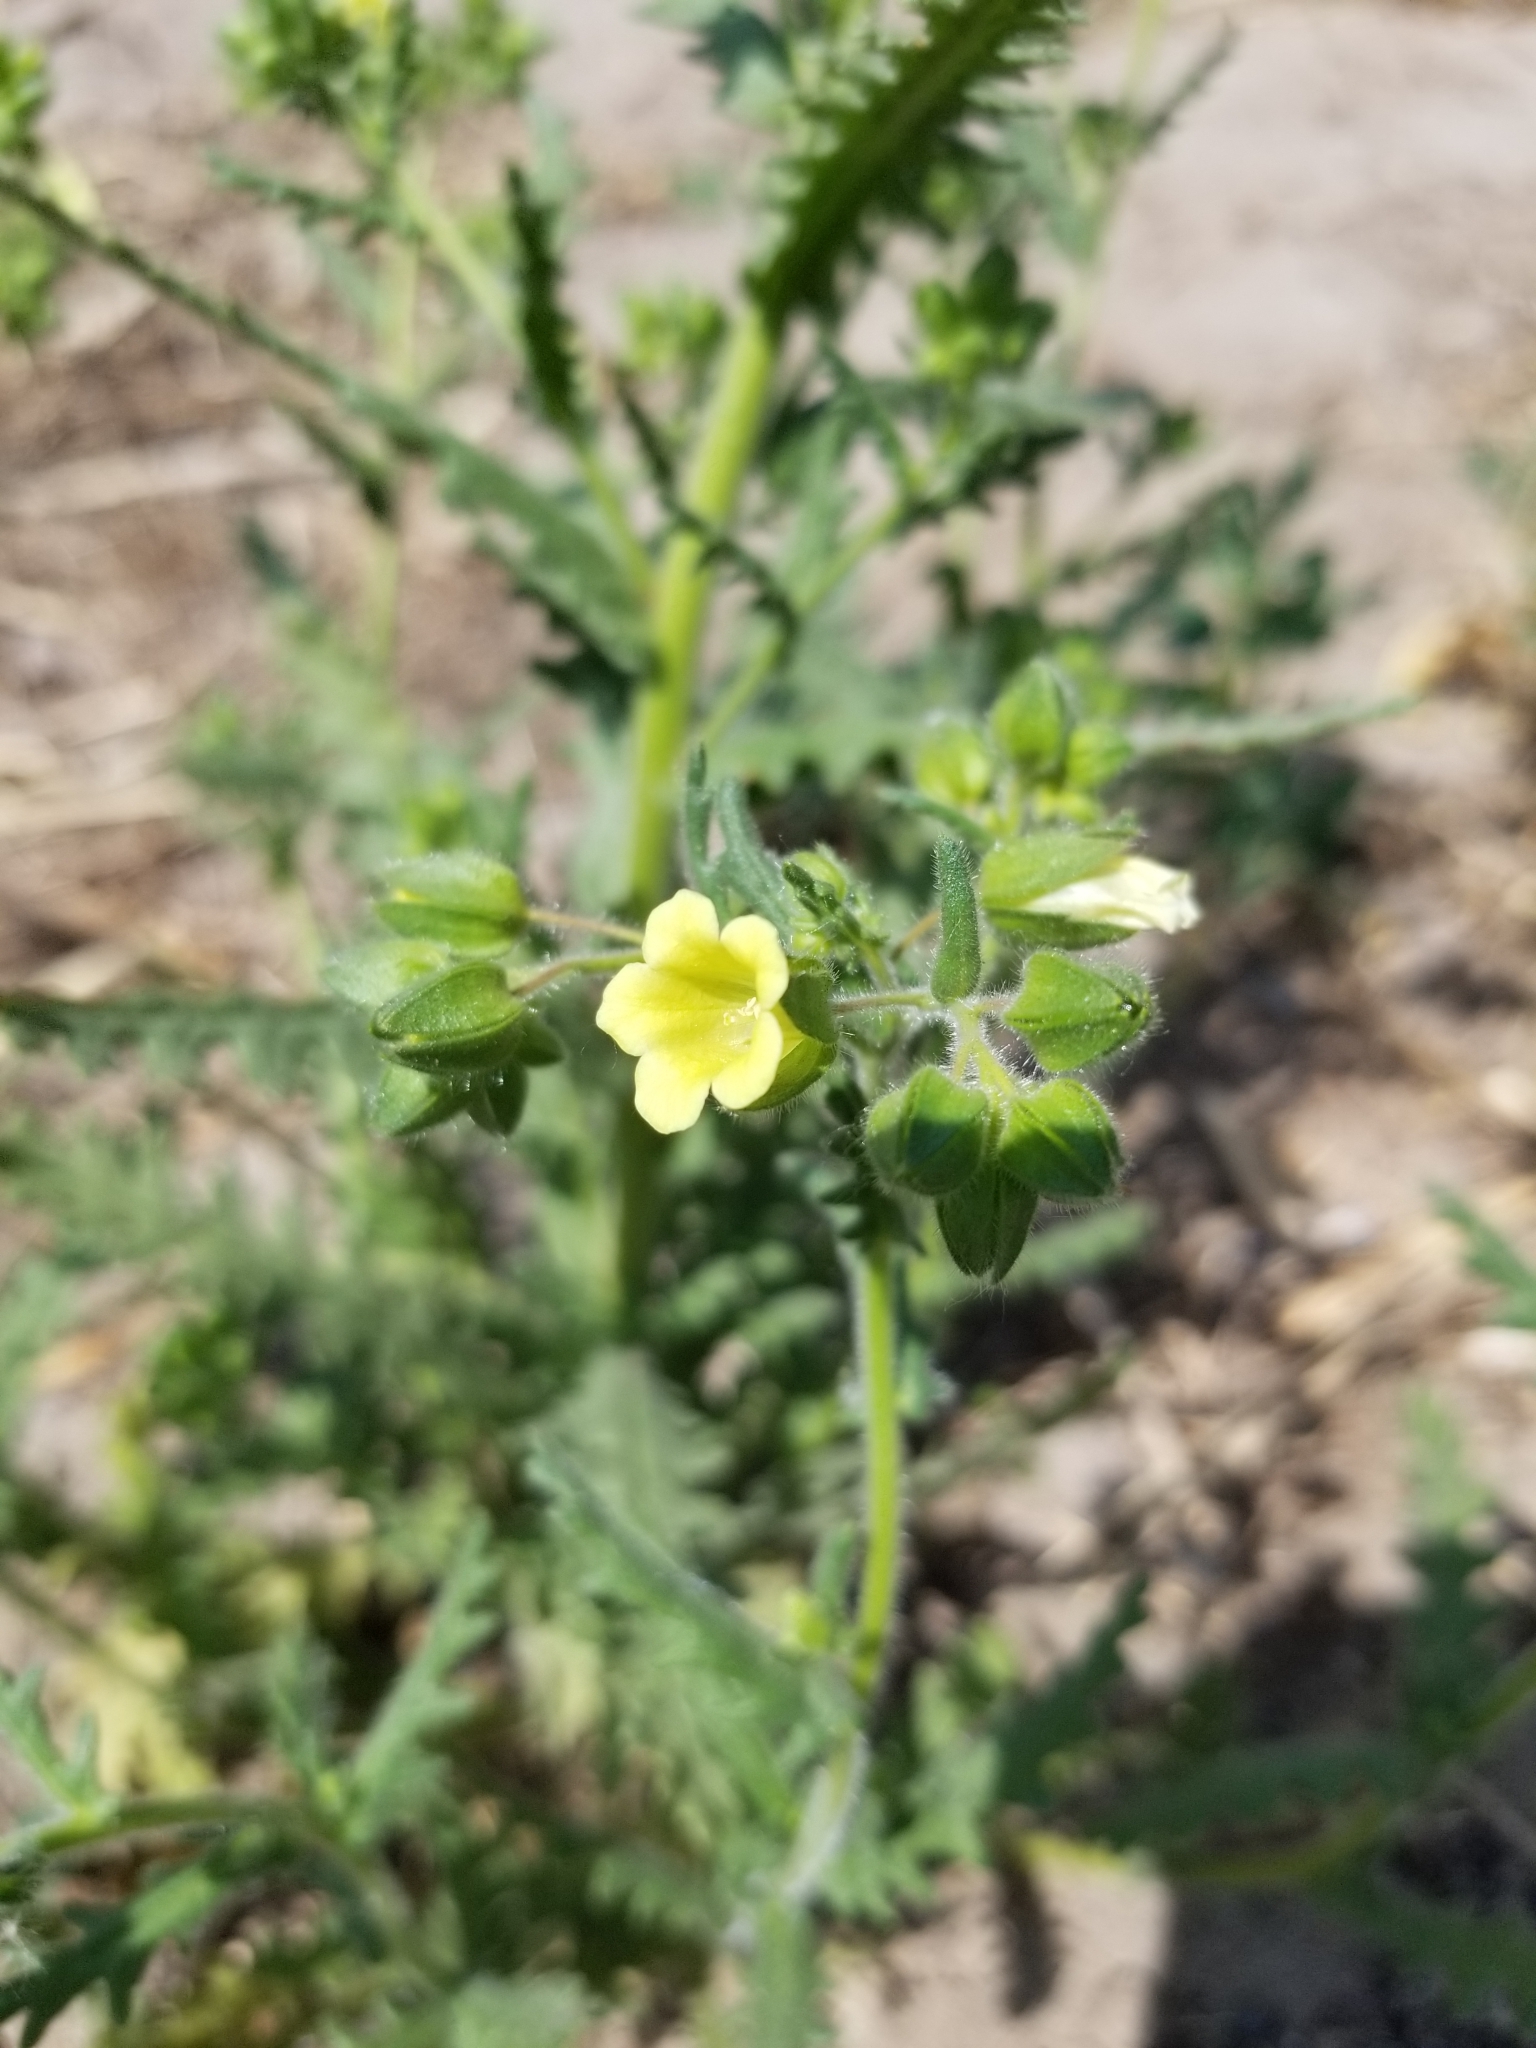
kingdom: Plantae
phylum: Tracheophyta
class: Magnoliopsida
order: Boraginales
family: Hydrophyllaceae
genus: Emmenanthe
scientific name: Emmenanthe penduliflora
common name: Whispering-bells
